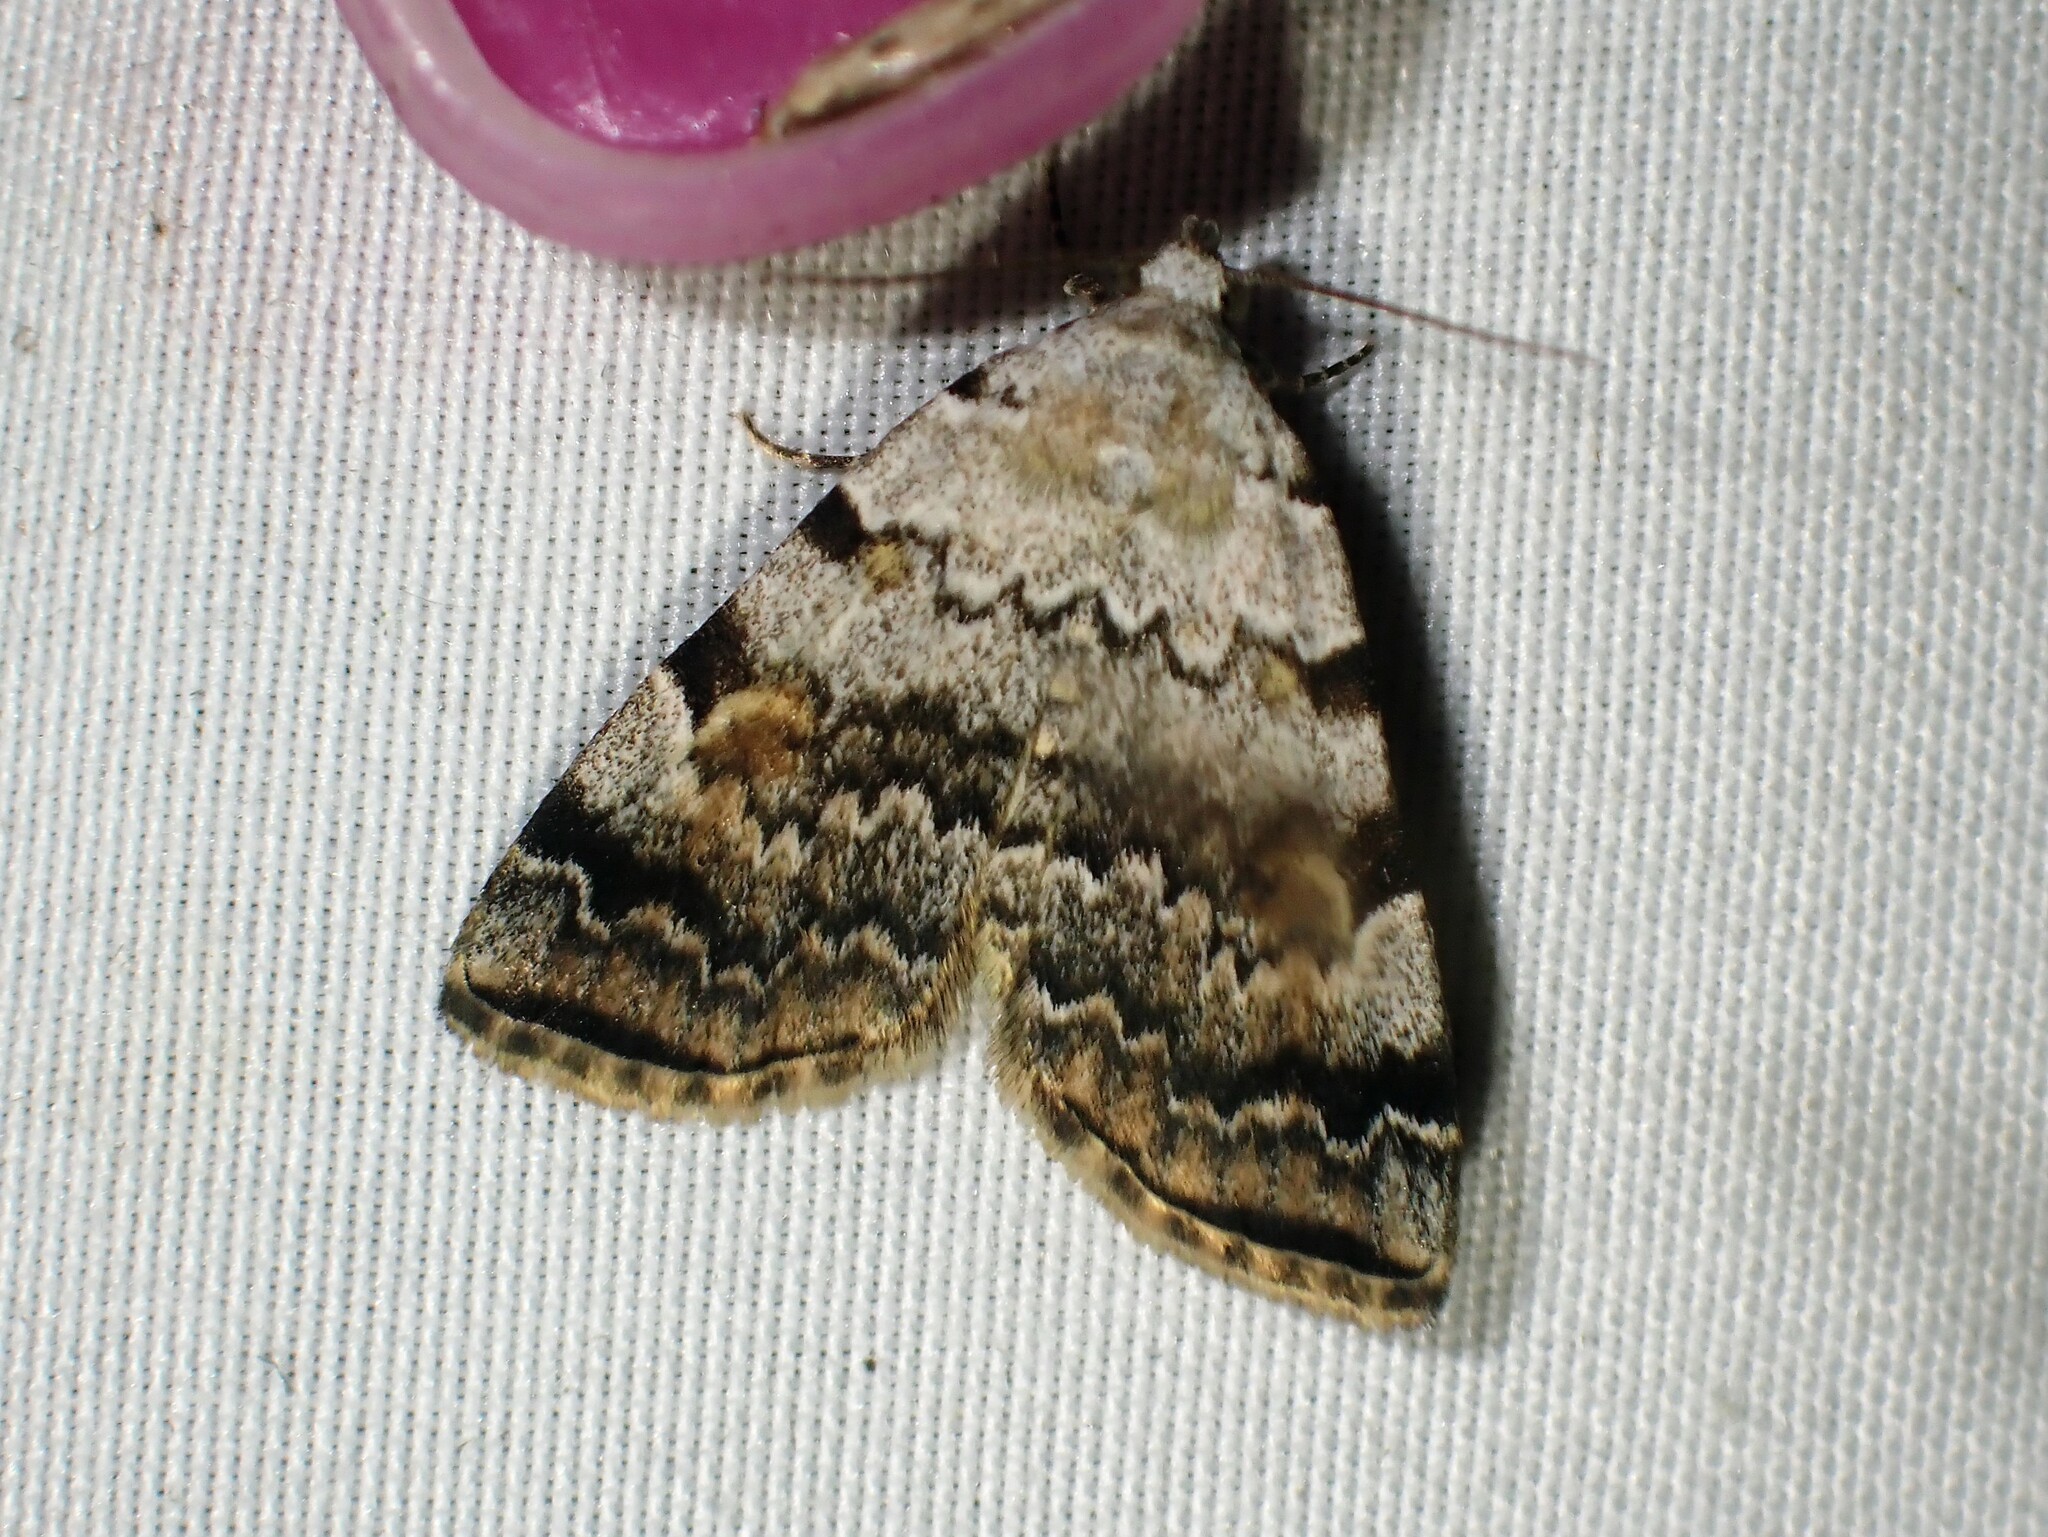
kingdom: Animalia
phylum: Arthropoda
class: Insecta
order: Lepidoptera
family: Erebidae
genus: Idia
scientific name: Idia americalis
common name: American idia moth
